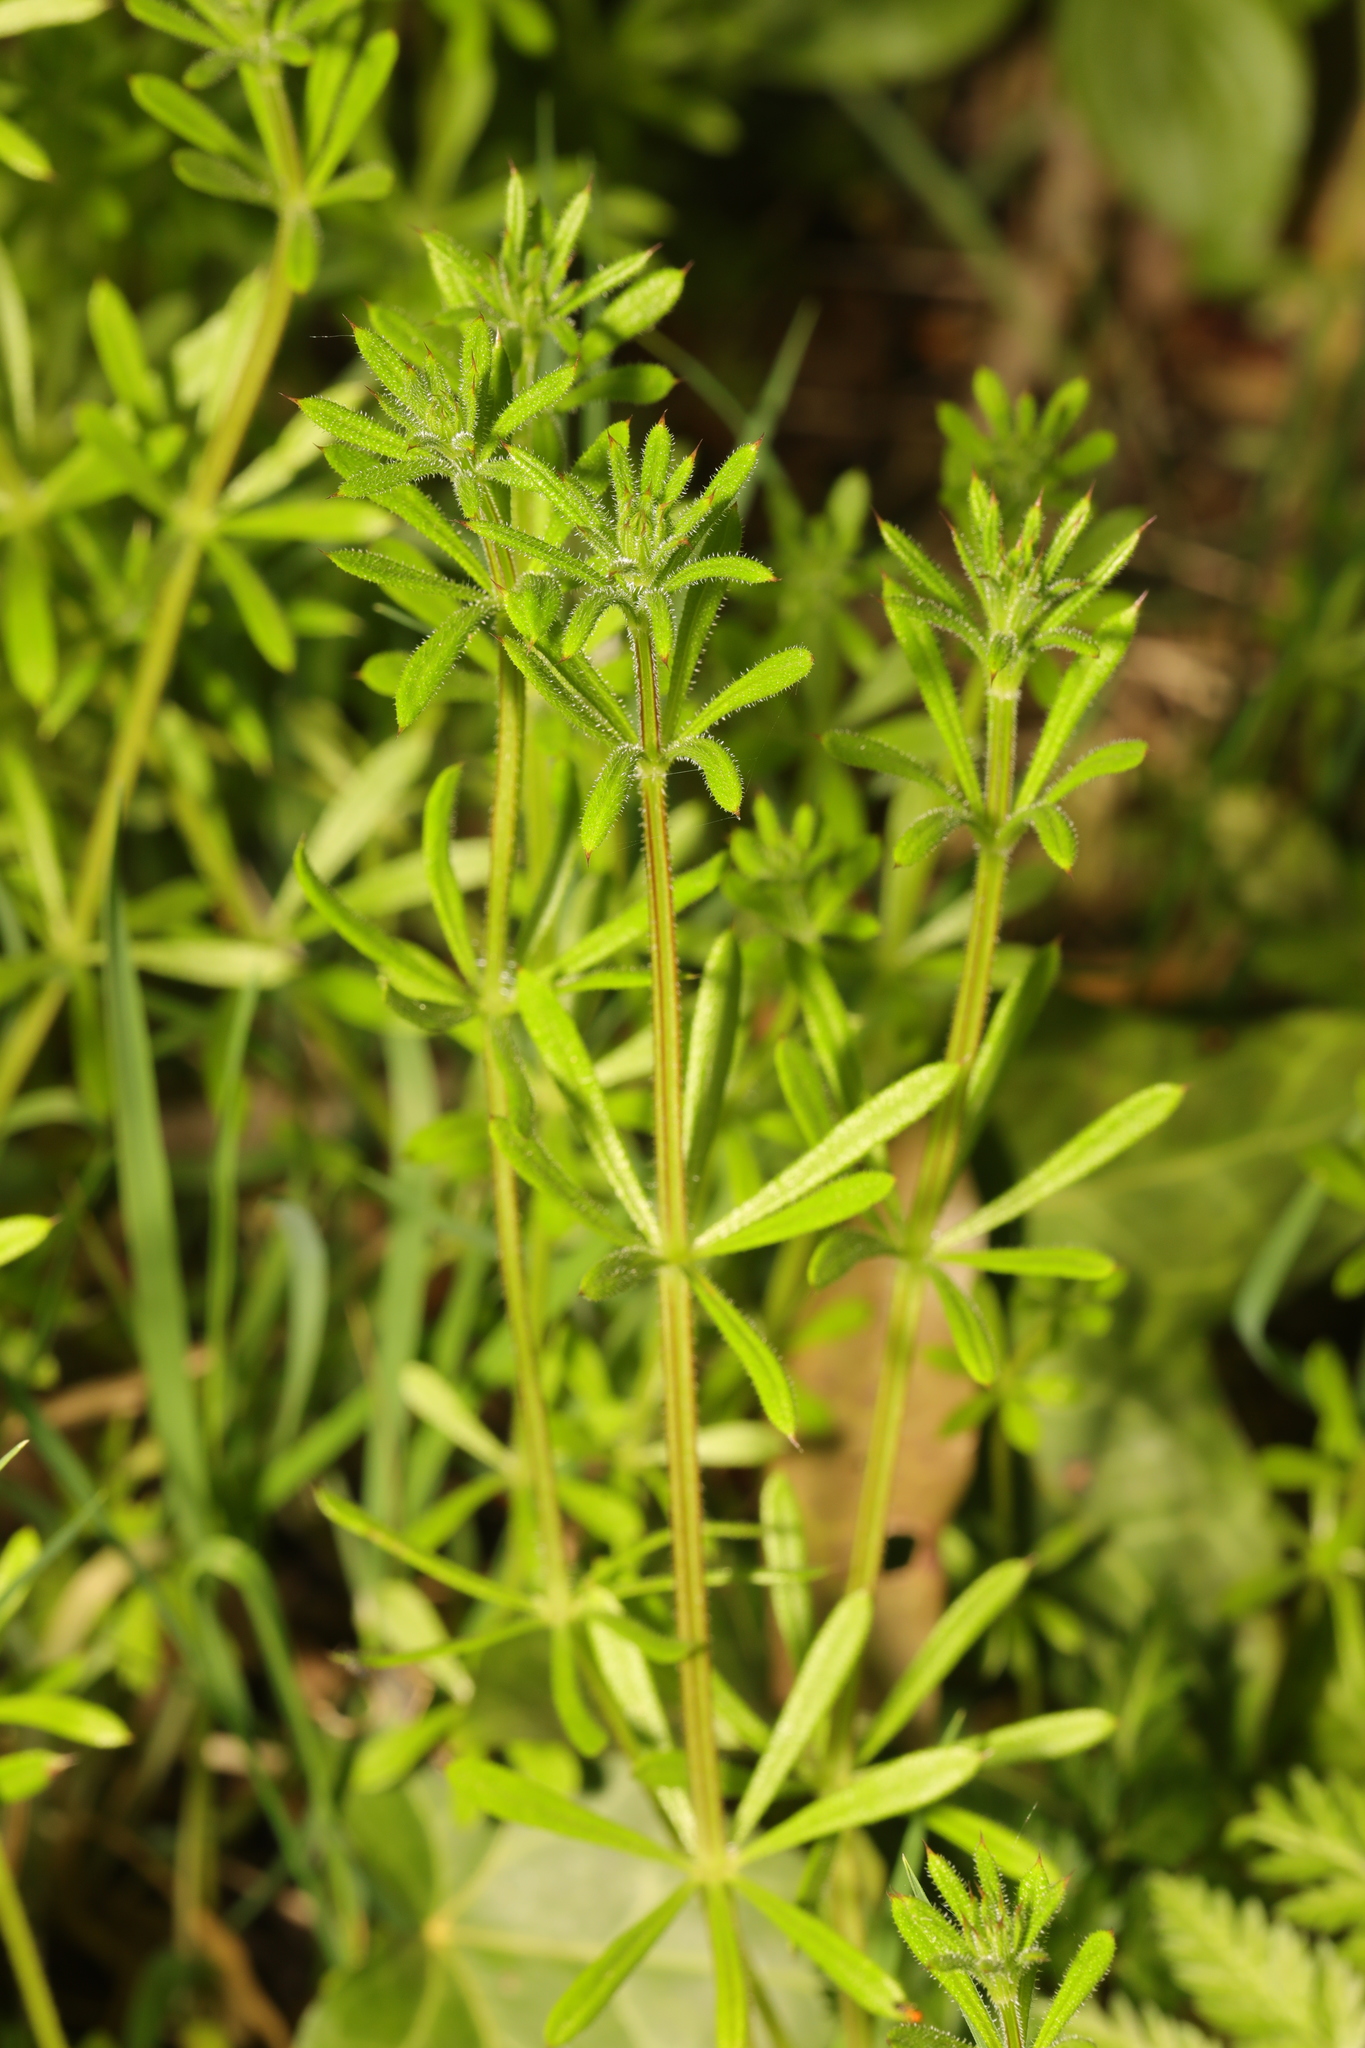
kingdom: Plantae
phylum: Tracheophyta
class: Magnoliopsida
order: Gentianales
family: Rubiaceae
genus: Galium
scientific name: Galium aparine
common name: Cleavers
